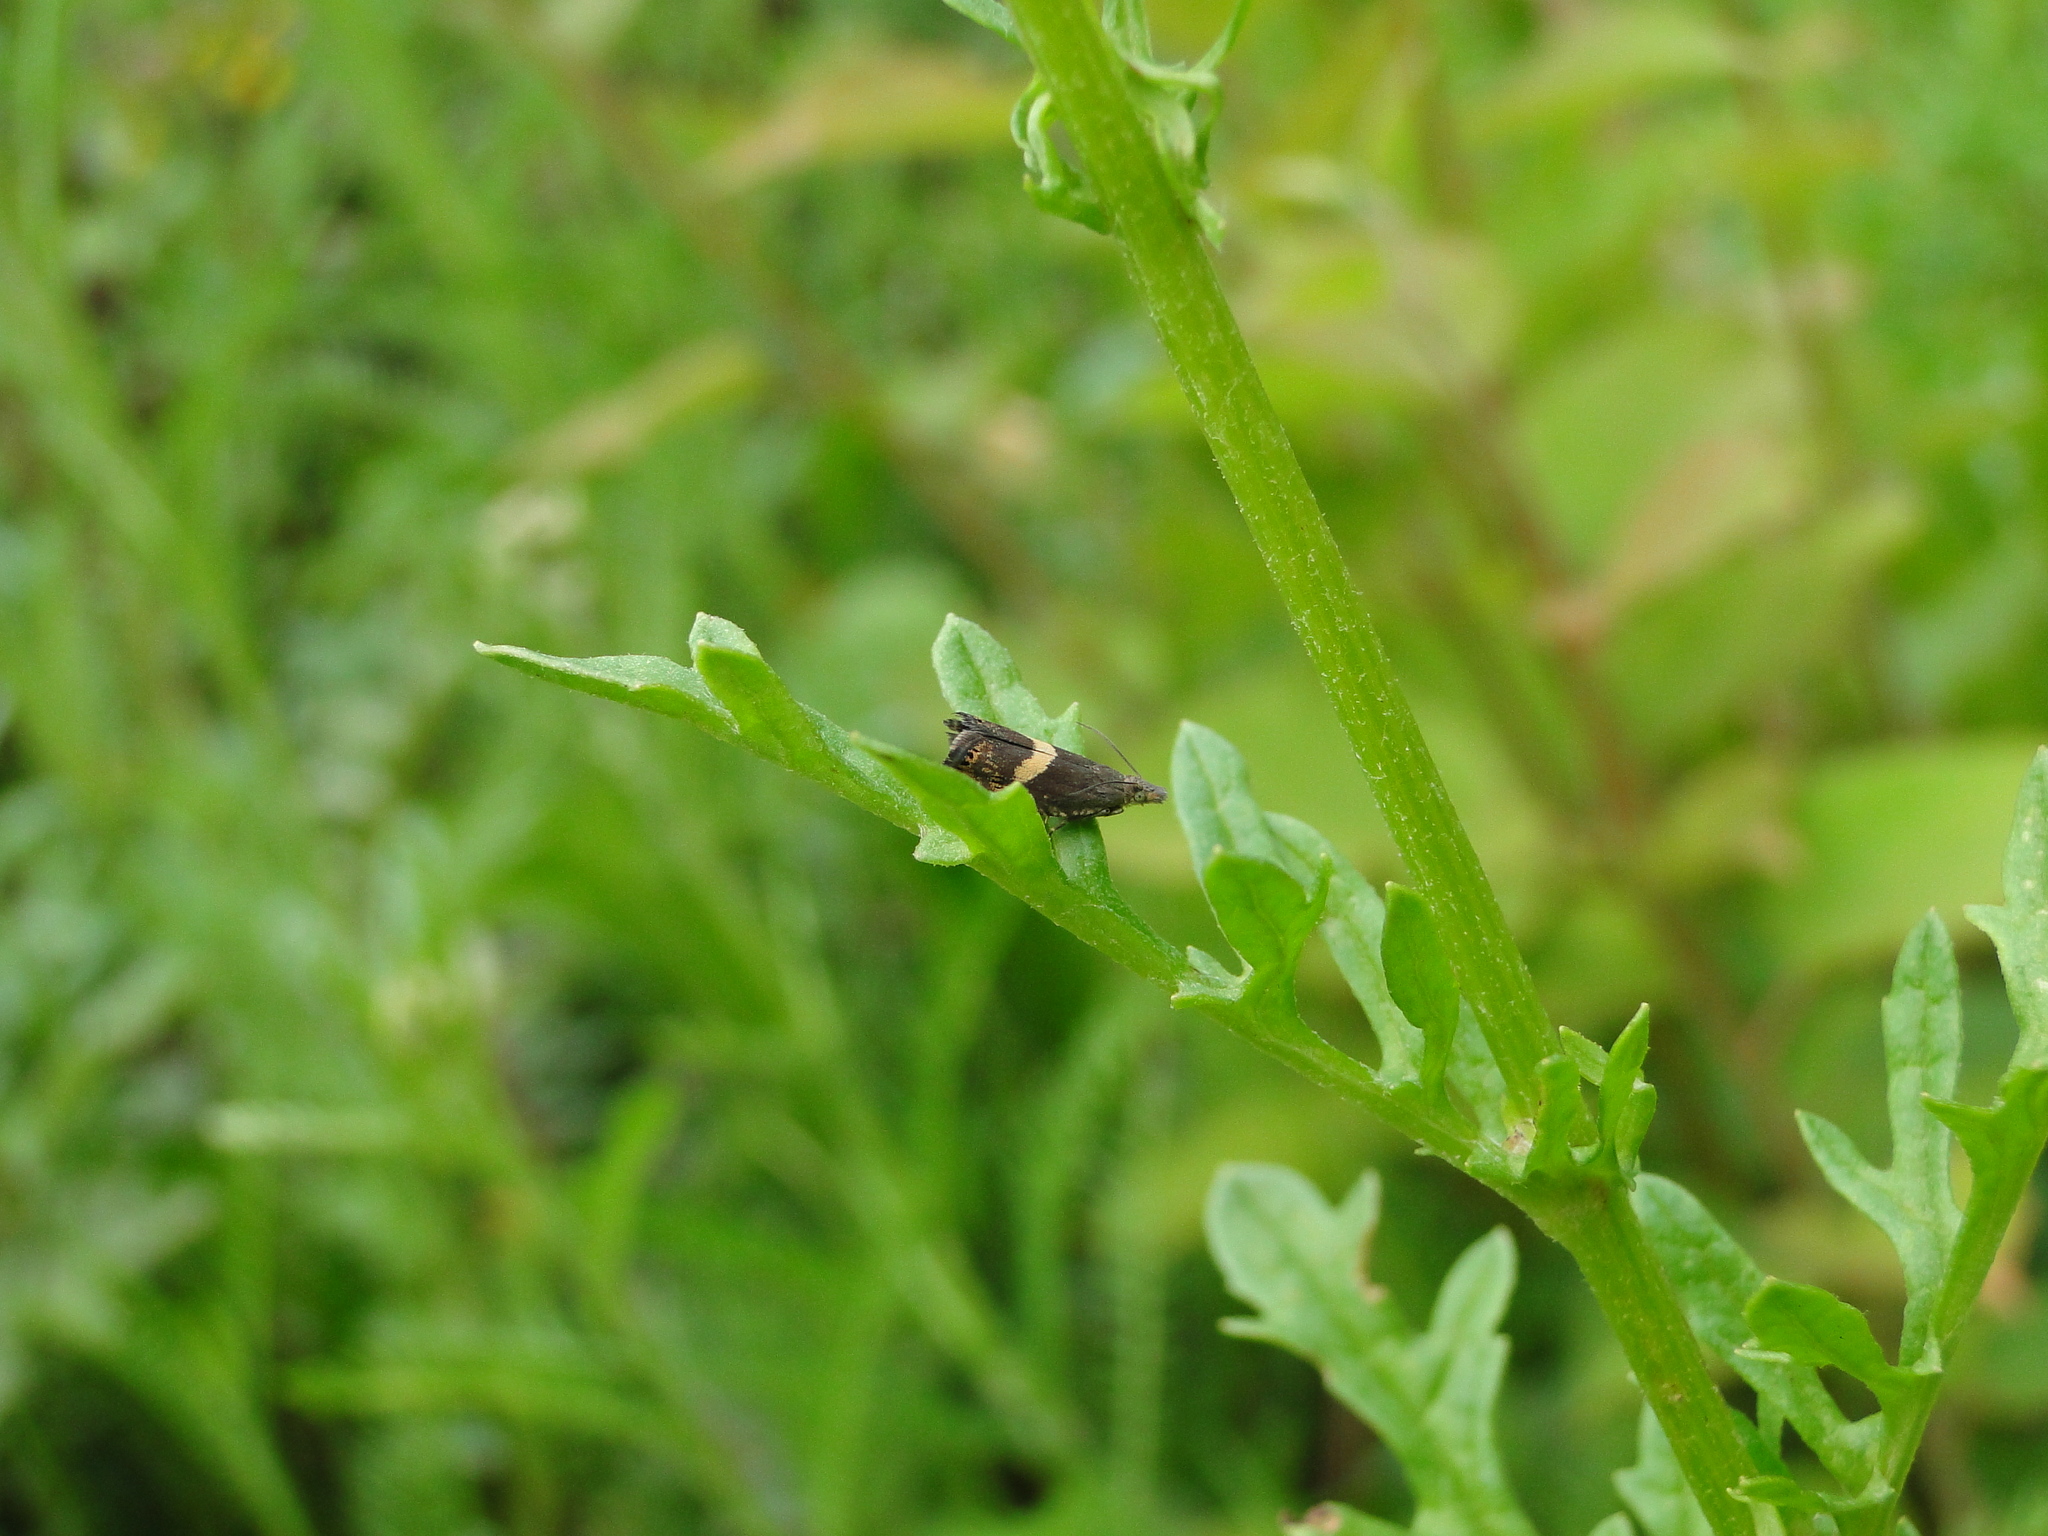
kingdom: Animalia
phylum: Arthropoda
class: Insecta
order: Lepidoptera
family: Tortricidae
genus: Dichrorampha
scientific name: Dichrorampha petiverella
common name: Common drill
